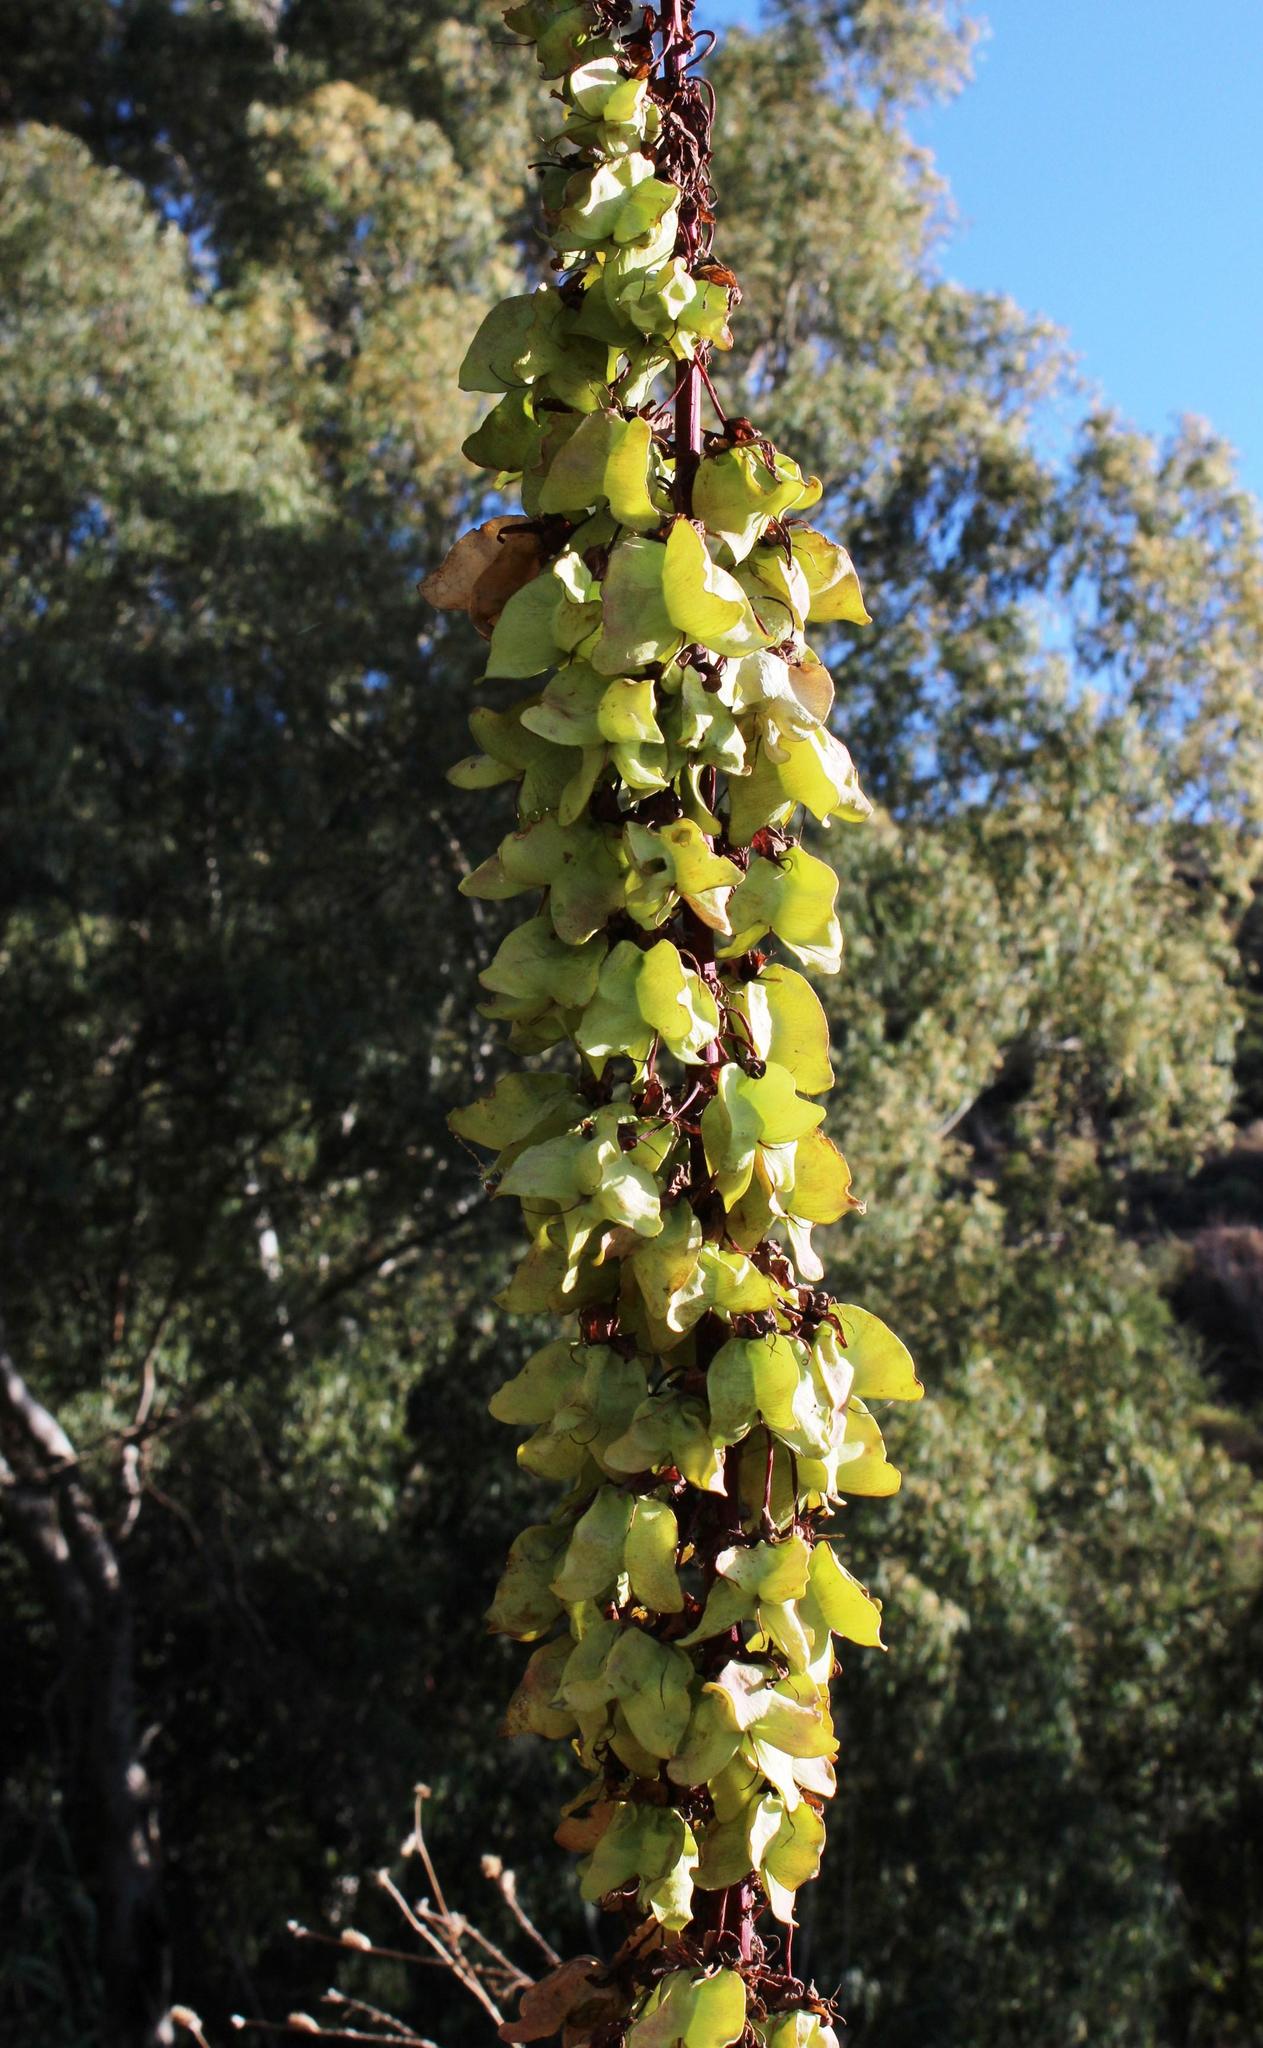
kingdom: Plantae
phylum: Tracheophyta
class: Magnoliopsida
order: Geraniales
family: Melianthaceae
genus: Melianthus
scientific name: Melianthus major
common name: Honey-flower
